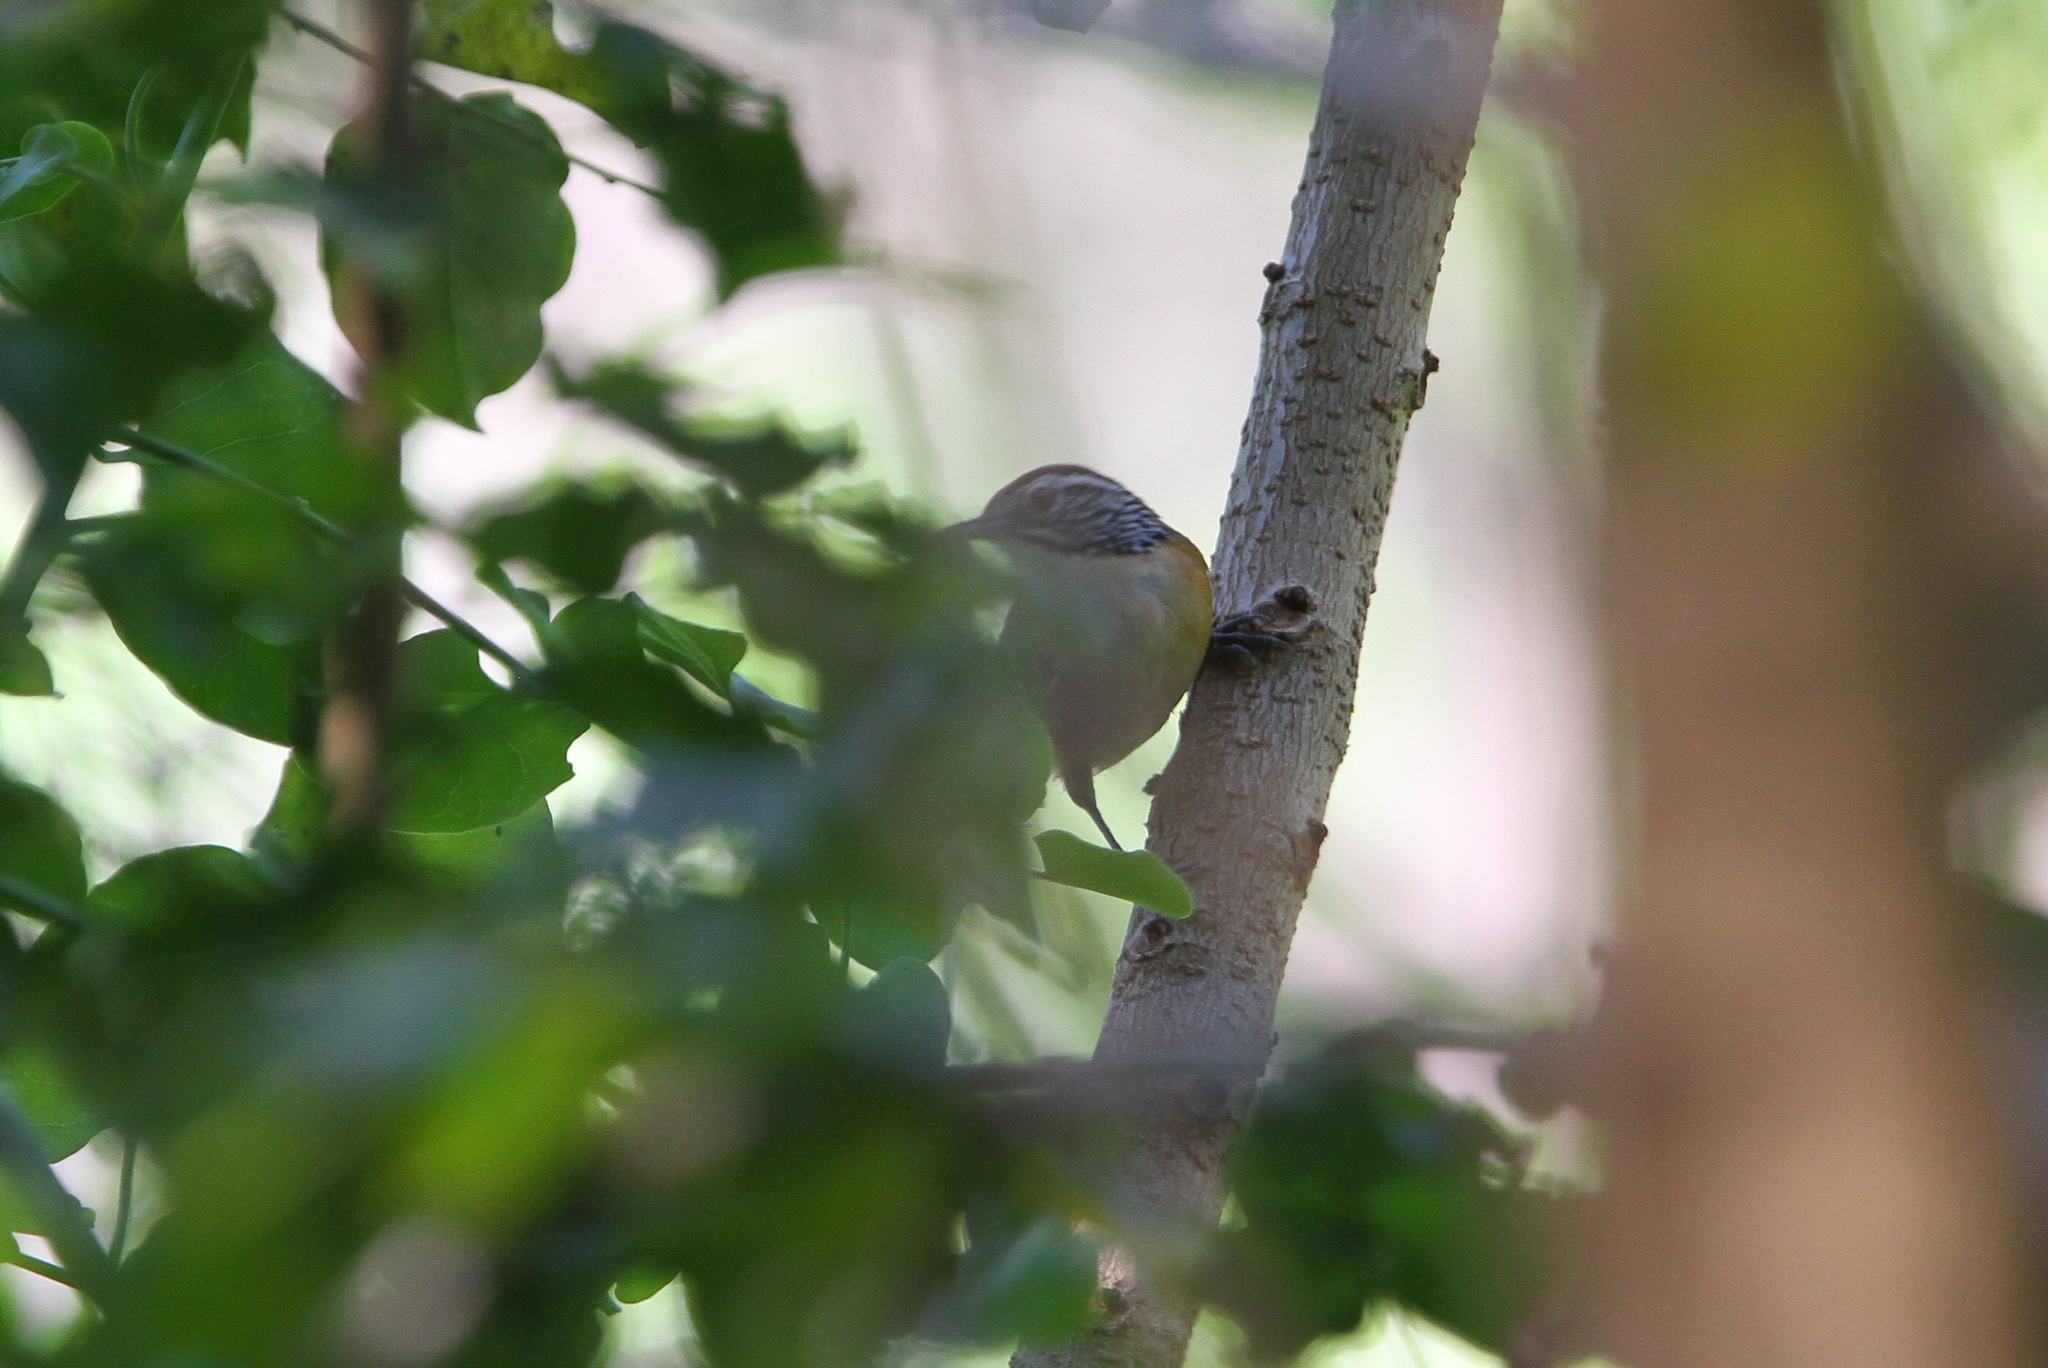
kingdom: Animalia
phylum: Chordata
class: Aves
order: Passeriformes
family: Troglodytidae
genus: Pheugopedius
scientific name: Pheugopedius felix
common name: Happy wren
